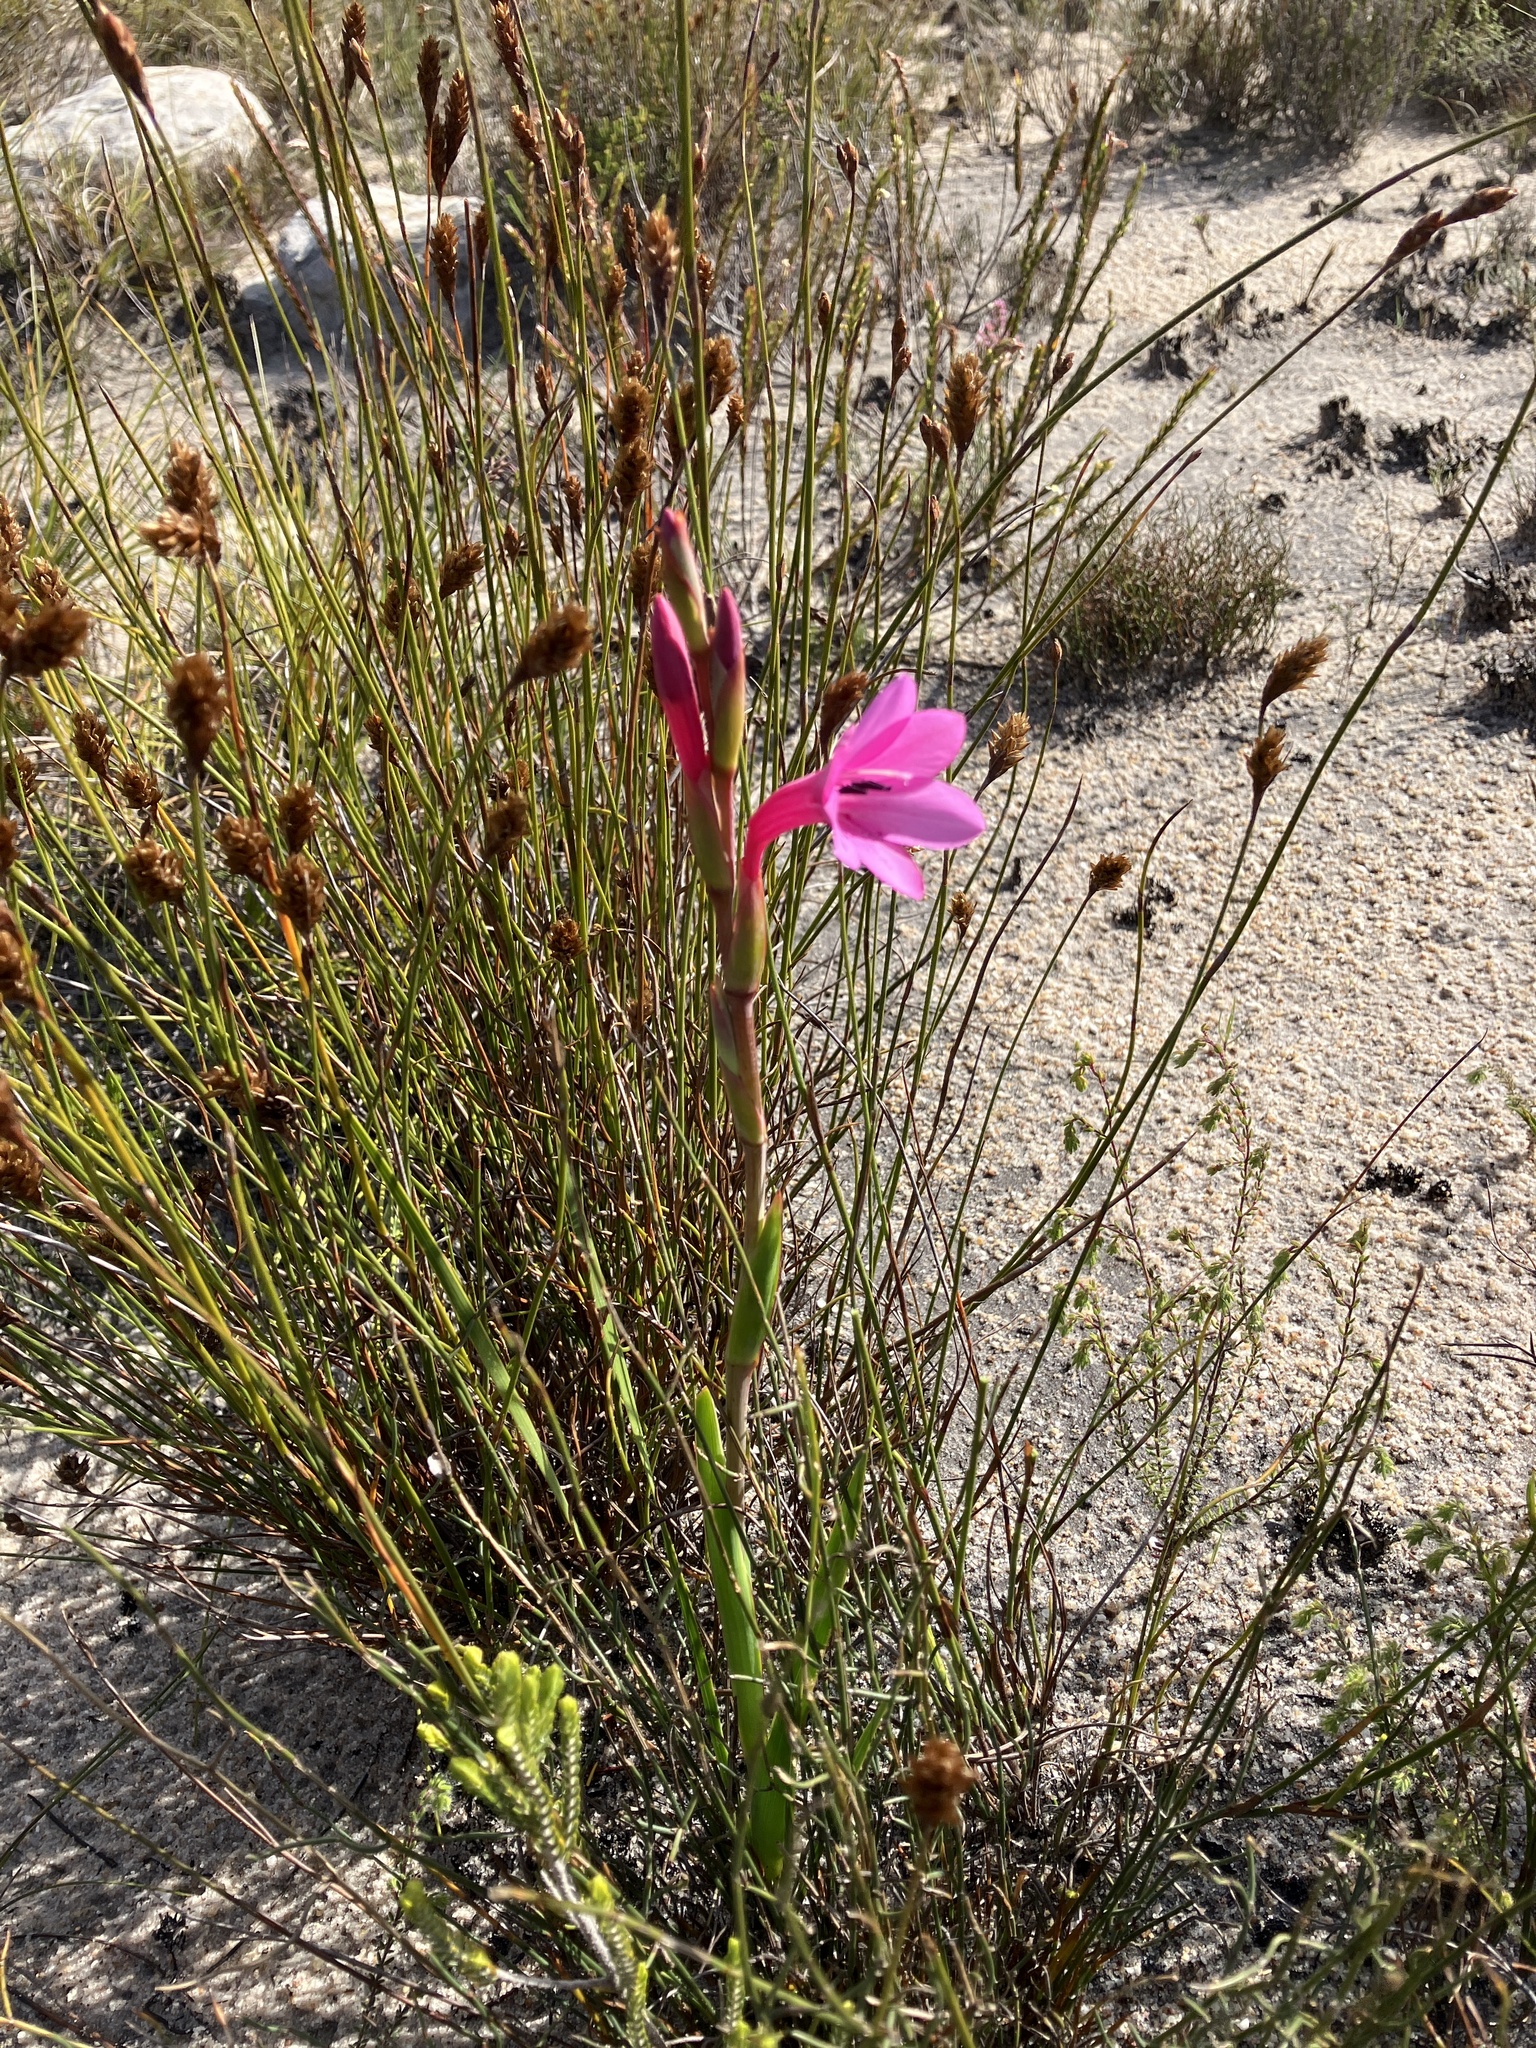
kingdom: Plantae
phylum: Tracheophyta
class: Liliopsida
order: Asparagales
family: Iridaceae
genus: Watsonia
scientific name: Watsonia coccinea
